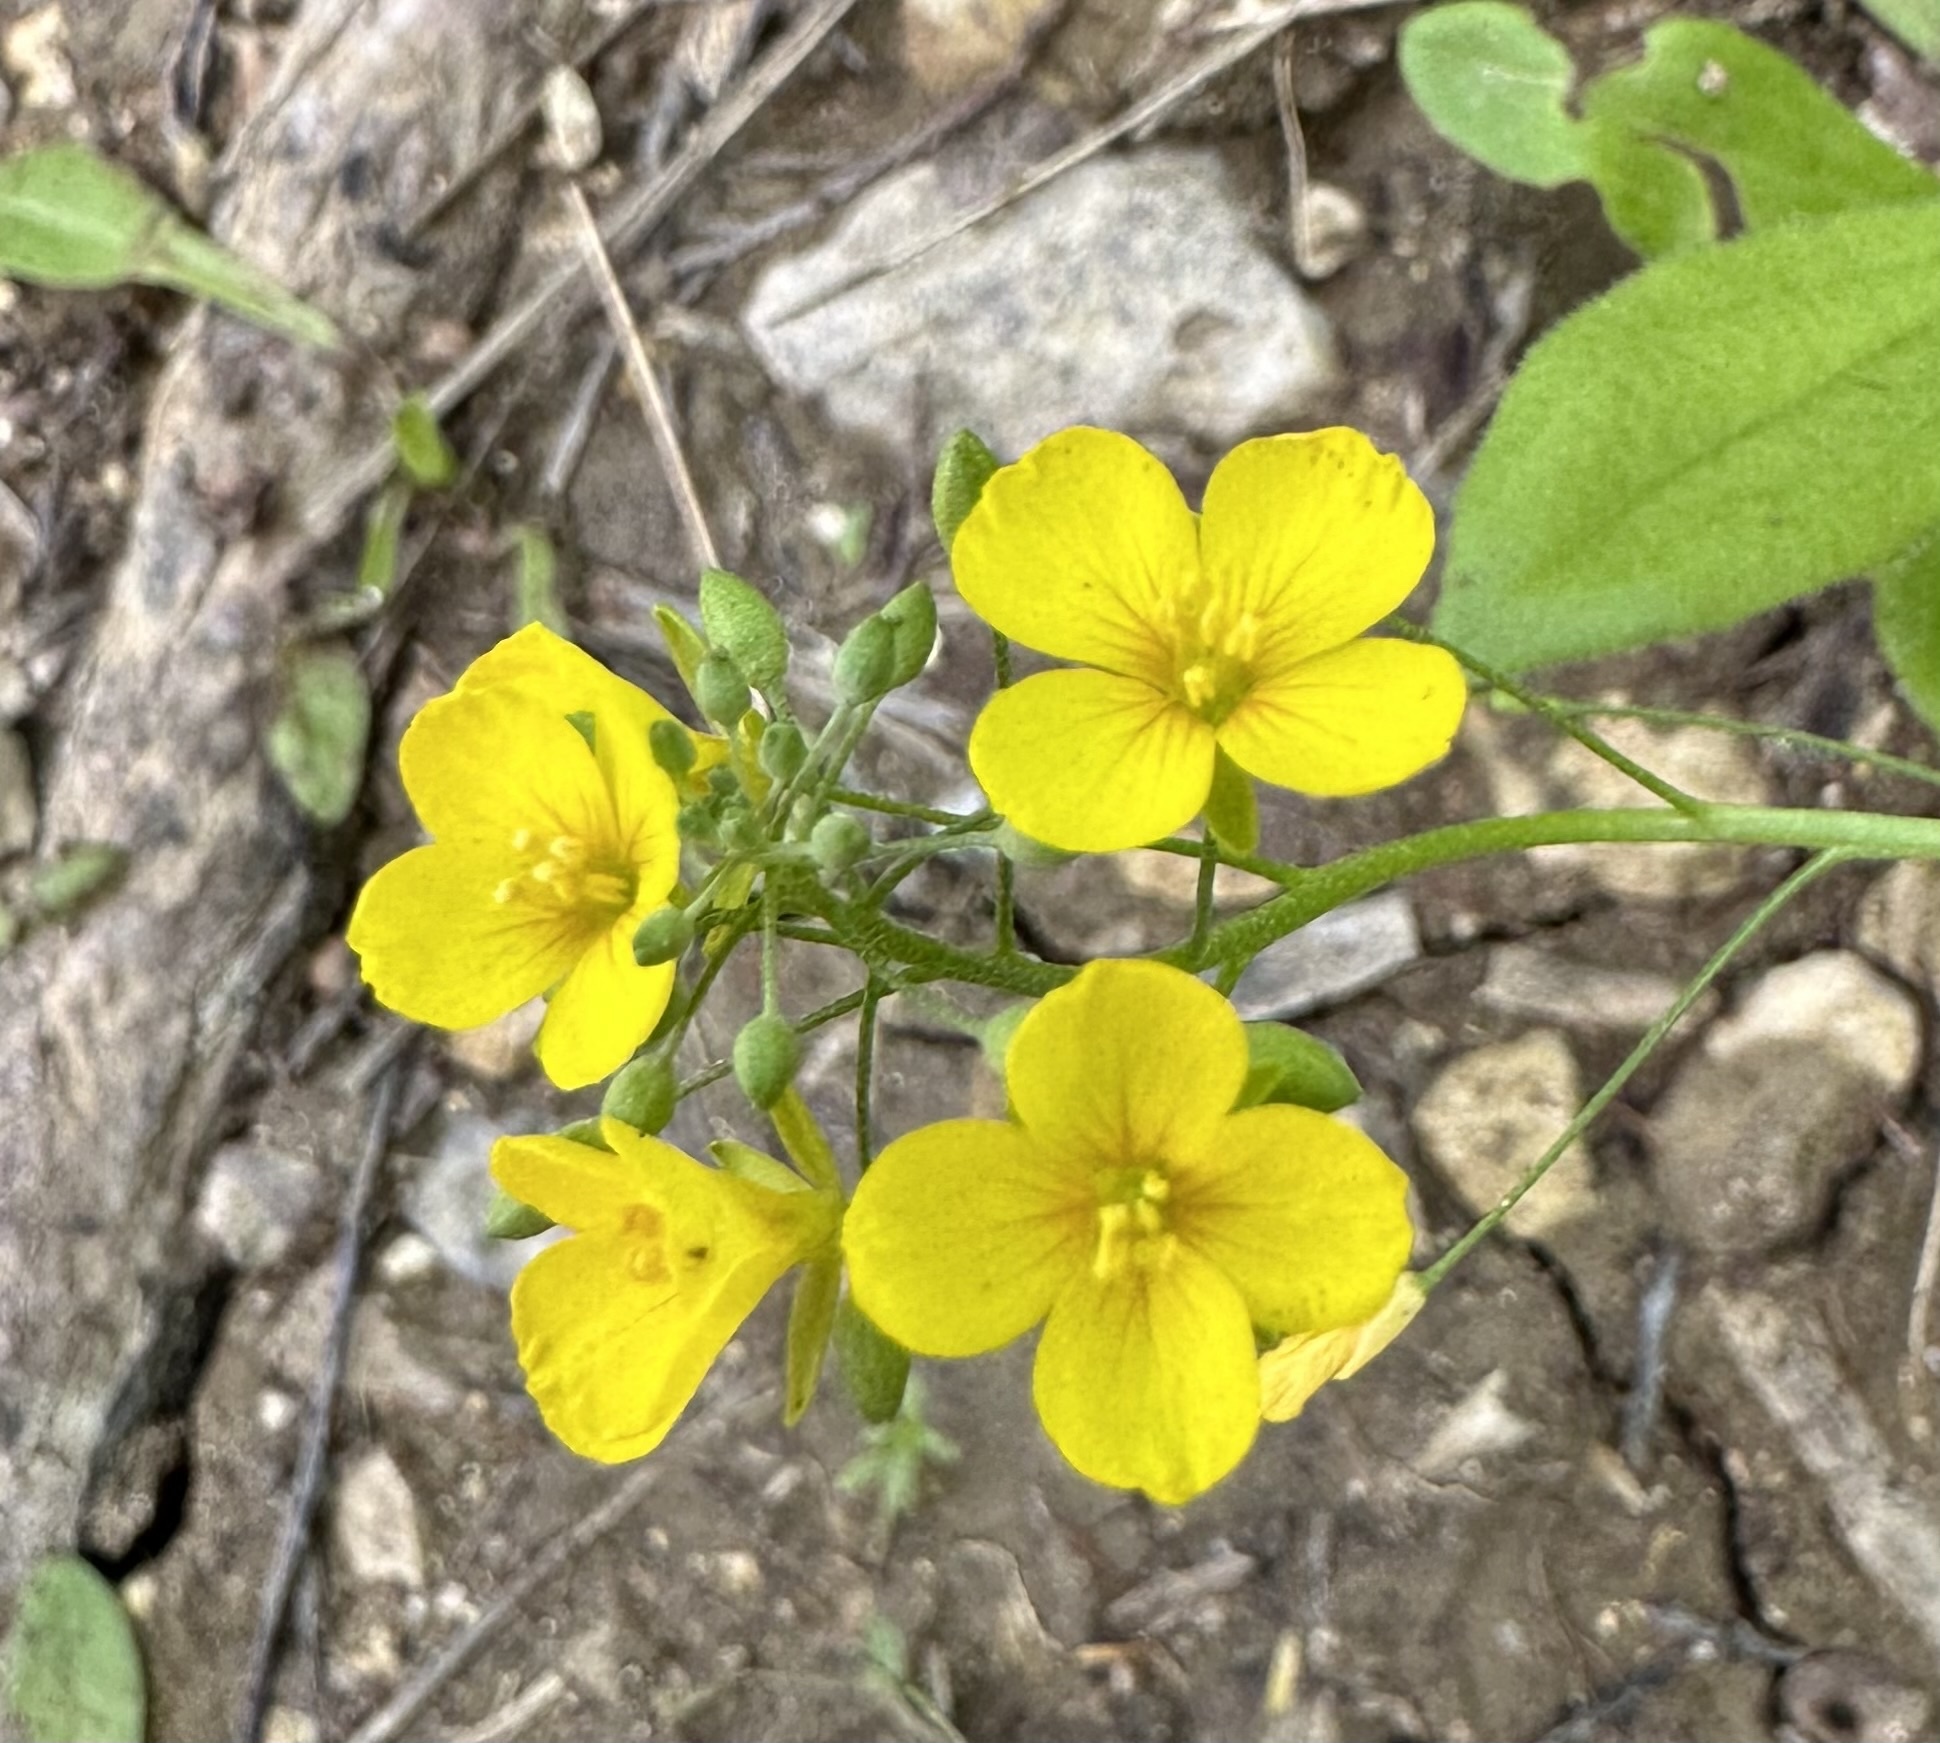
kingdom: Plantae
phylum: Tracheophyta
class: Magnoliopsida
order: Brassicales
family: Brassicaceae
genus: Physaria
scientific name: Physaria gracilis
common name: Spreading bladderpod
